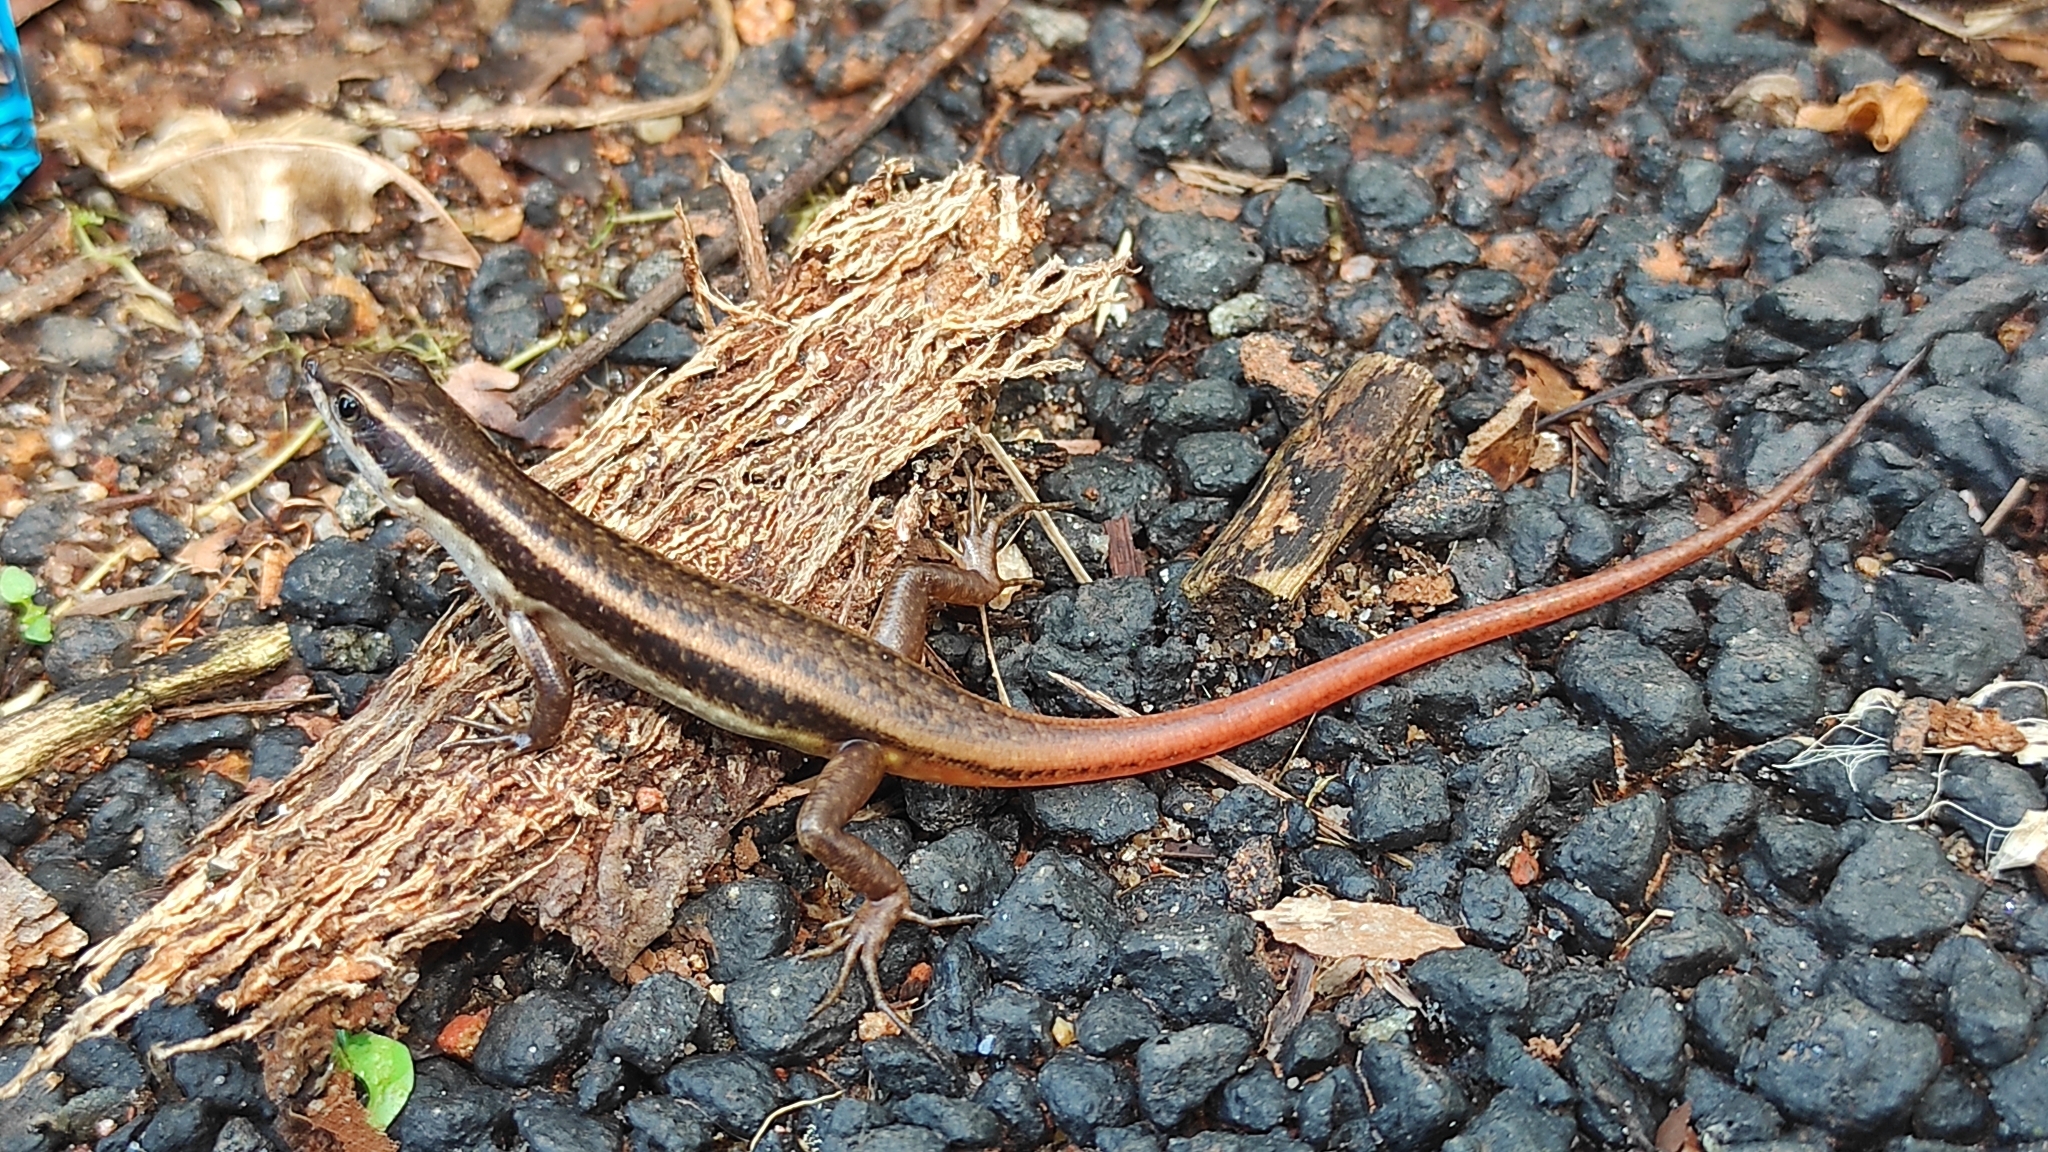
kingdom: Animalia
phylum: Chordata
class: Squamata
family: Scincidae
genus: Sphenomorphus
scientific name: Sphenomorphus dussumieri
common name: Dussumier's forest skink
